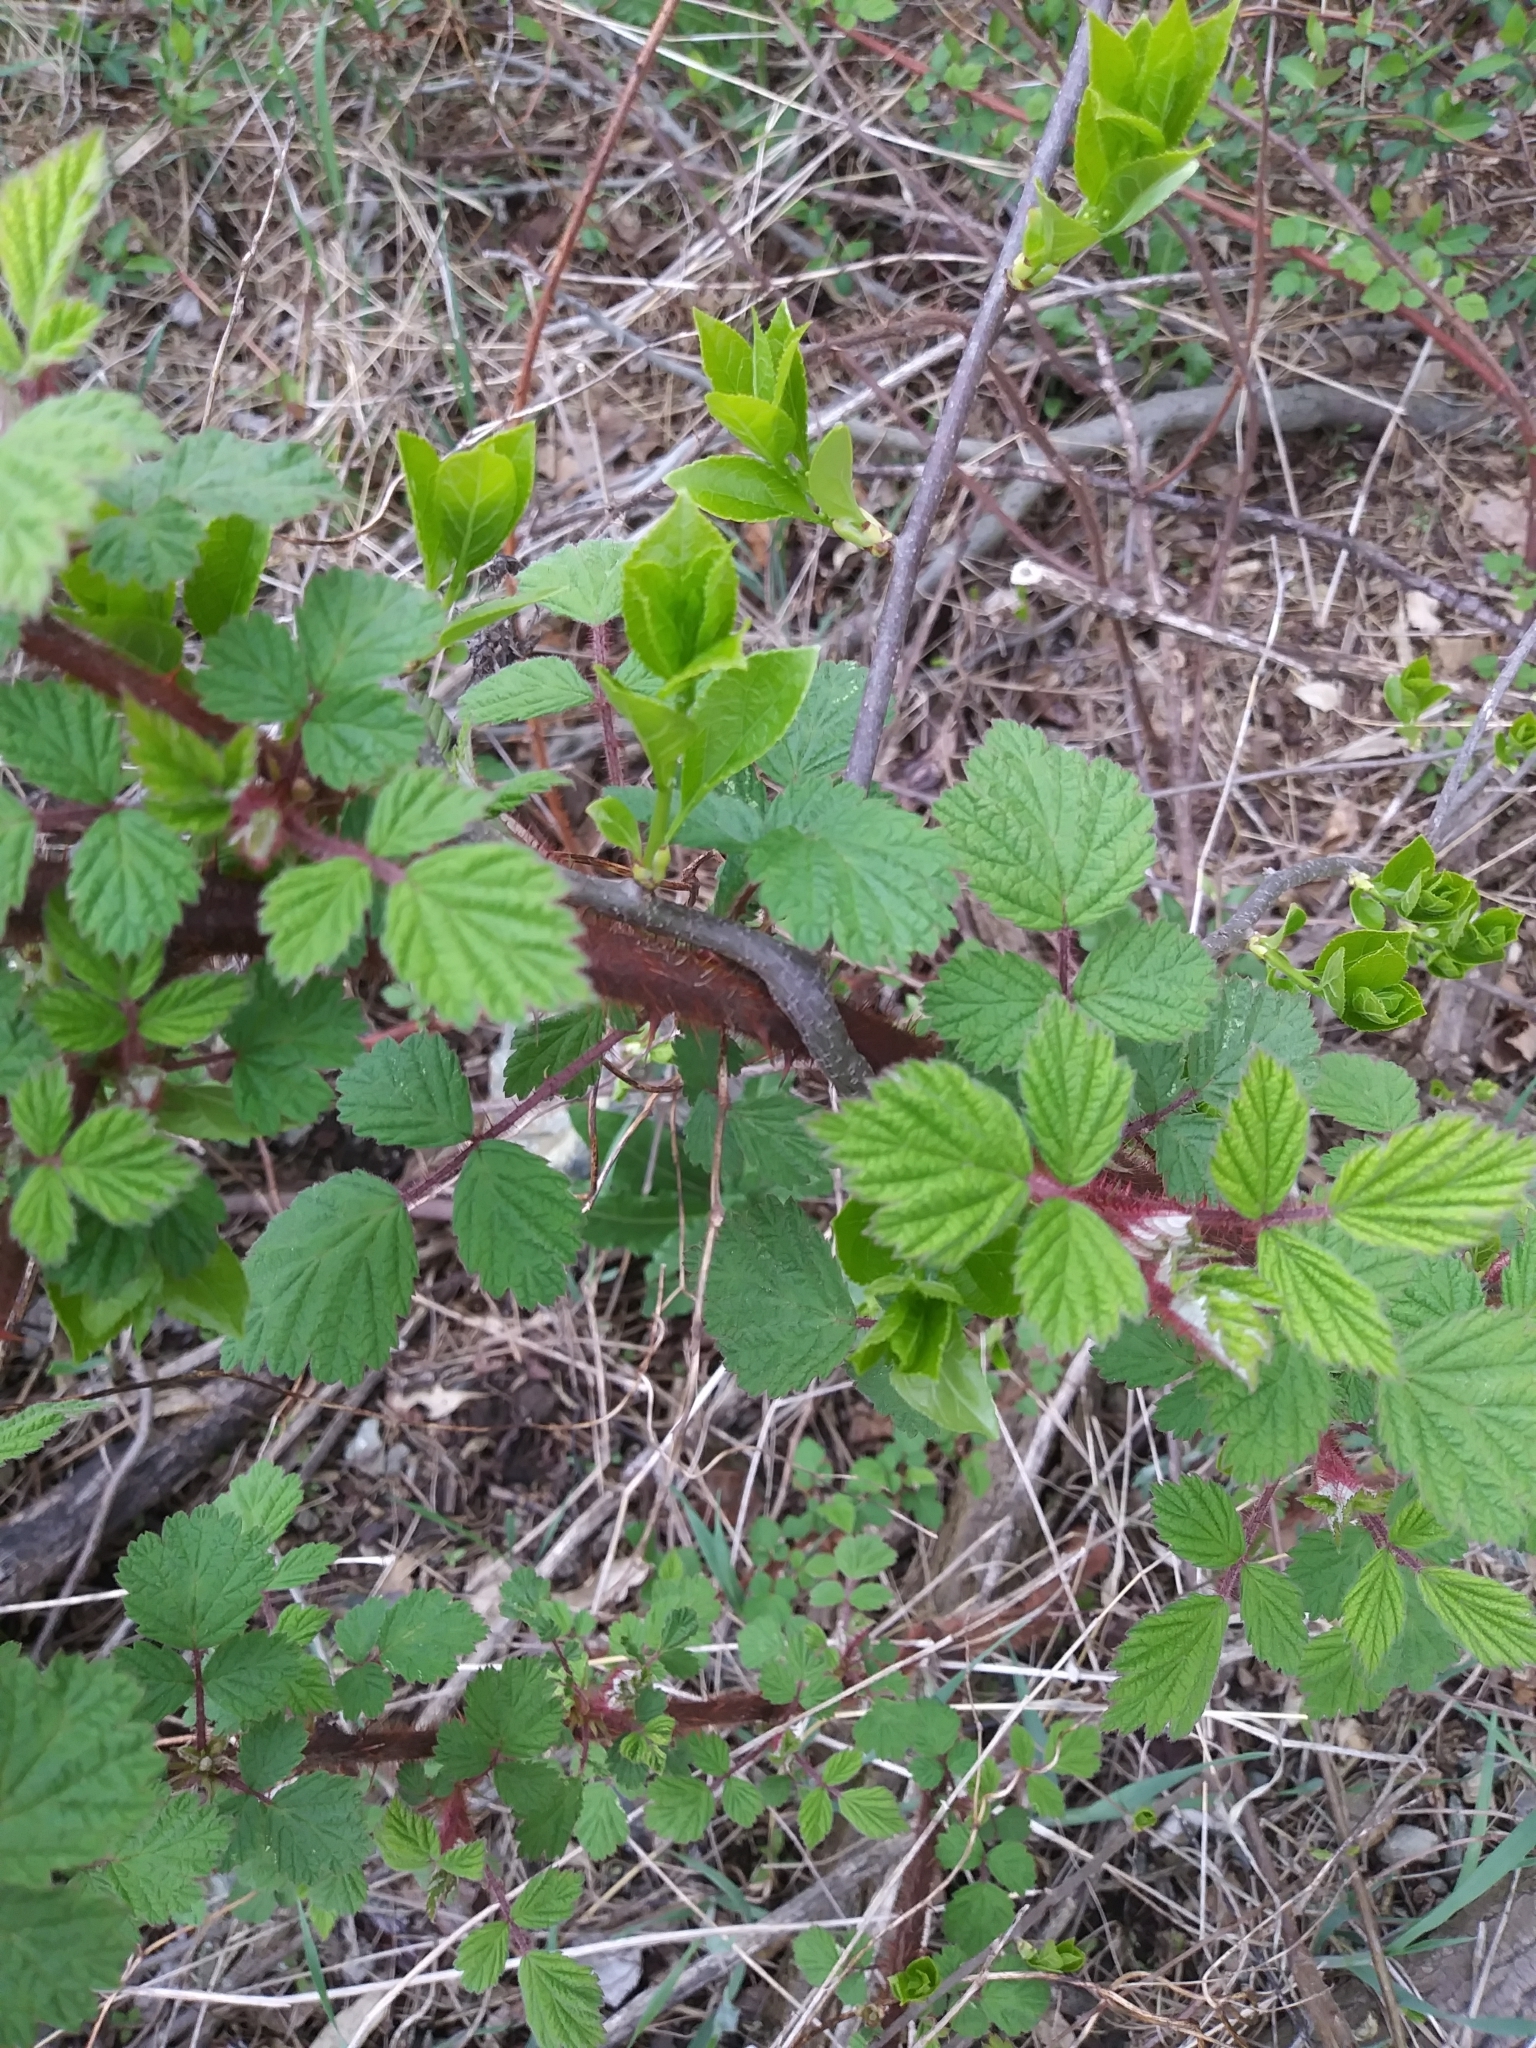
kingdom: Plantae
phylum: Tracheophyta
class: Magnoliopsida
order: Rosales
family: Rosaceae
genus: Rubus
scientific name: Rubus phoenicolasius
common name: Japanese wineberry
